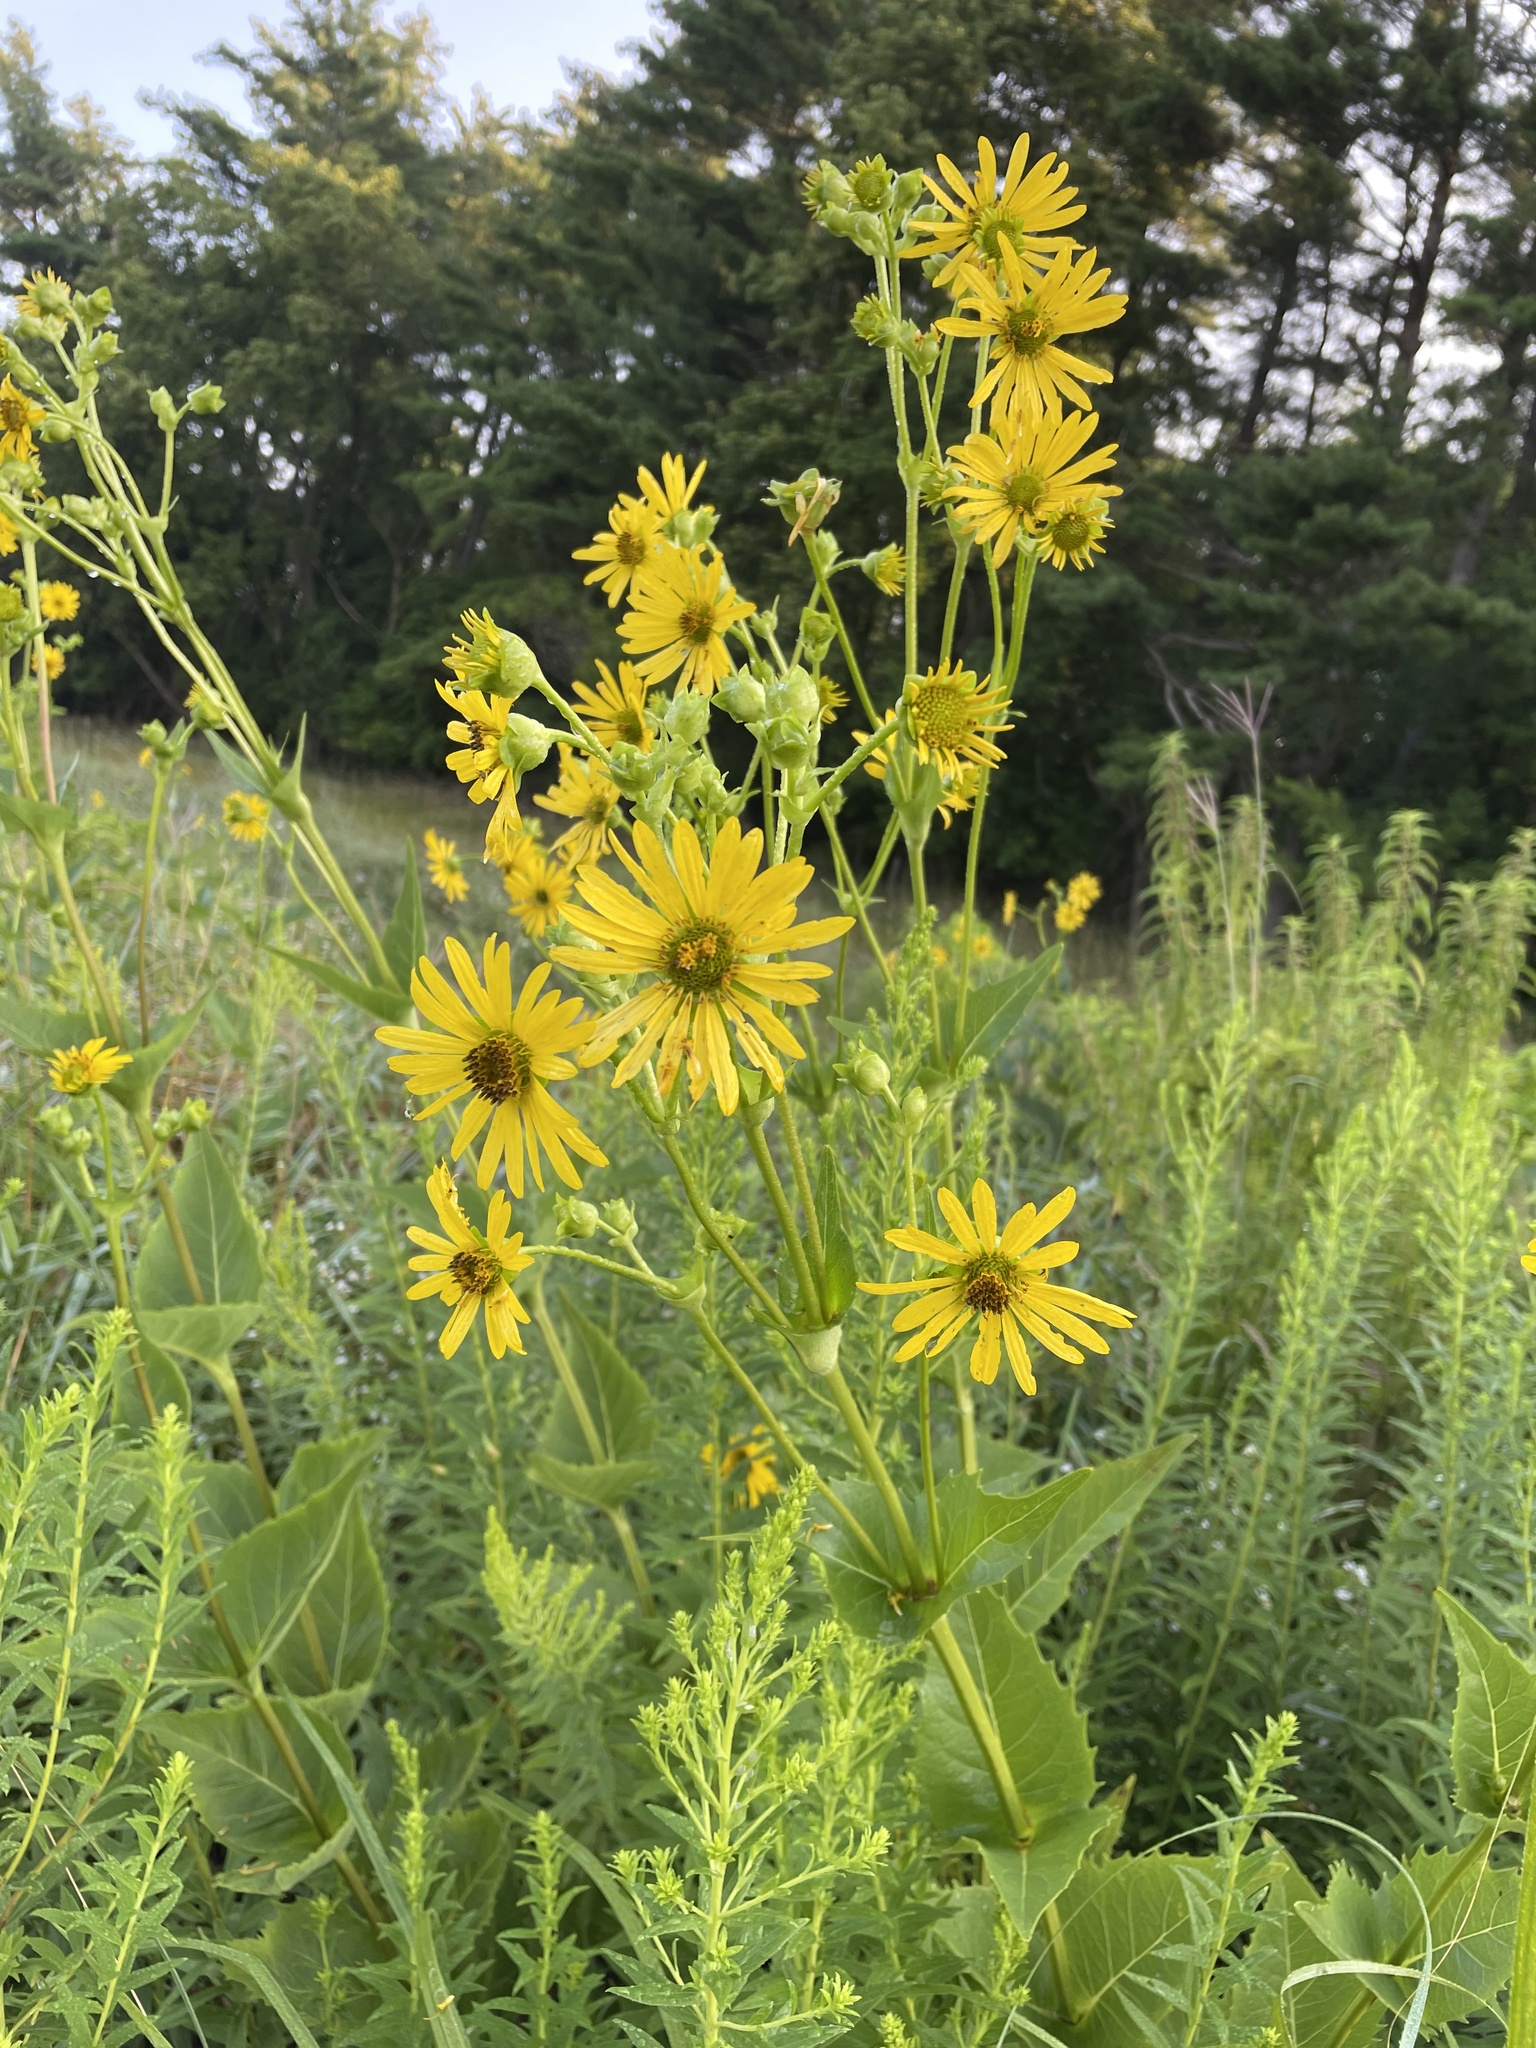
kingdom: Plantae
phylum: Tracheophyta
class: Magnoliopsida
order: Asterales
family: Asteraceae
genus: Silphium
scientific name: Silphium perfoliatum
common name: Cup-plant
